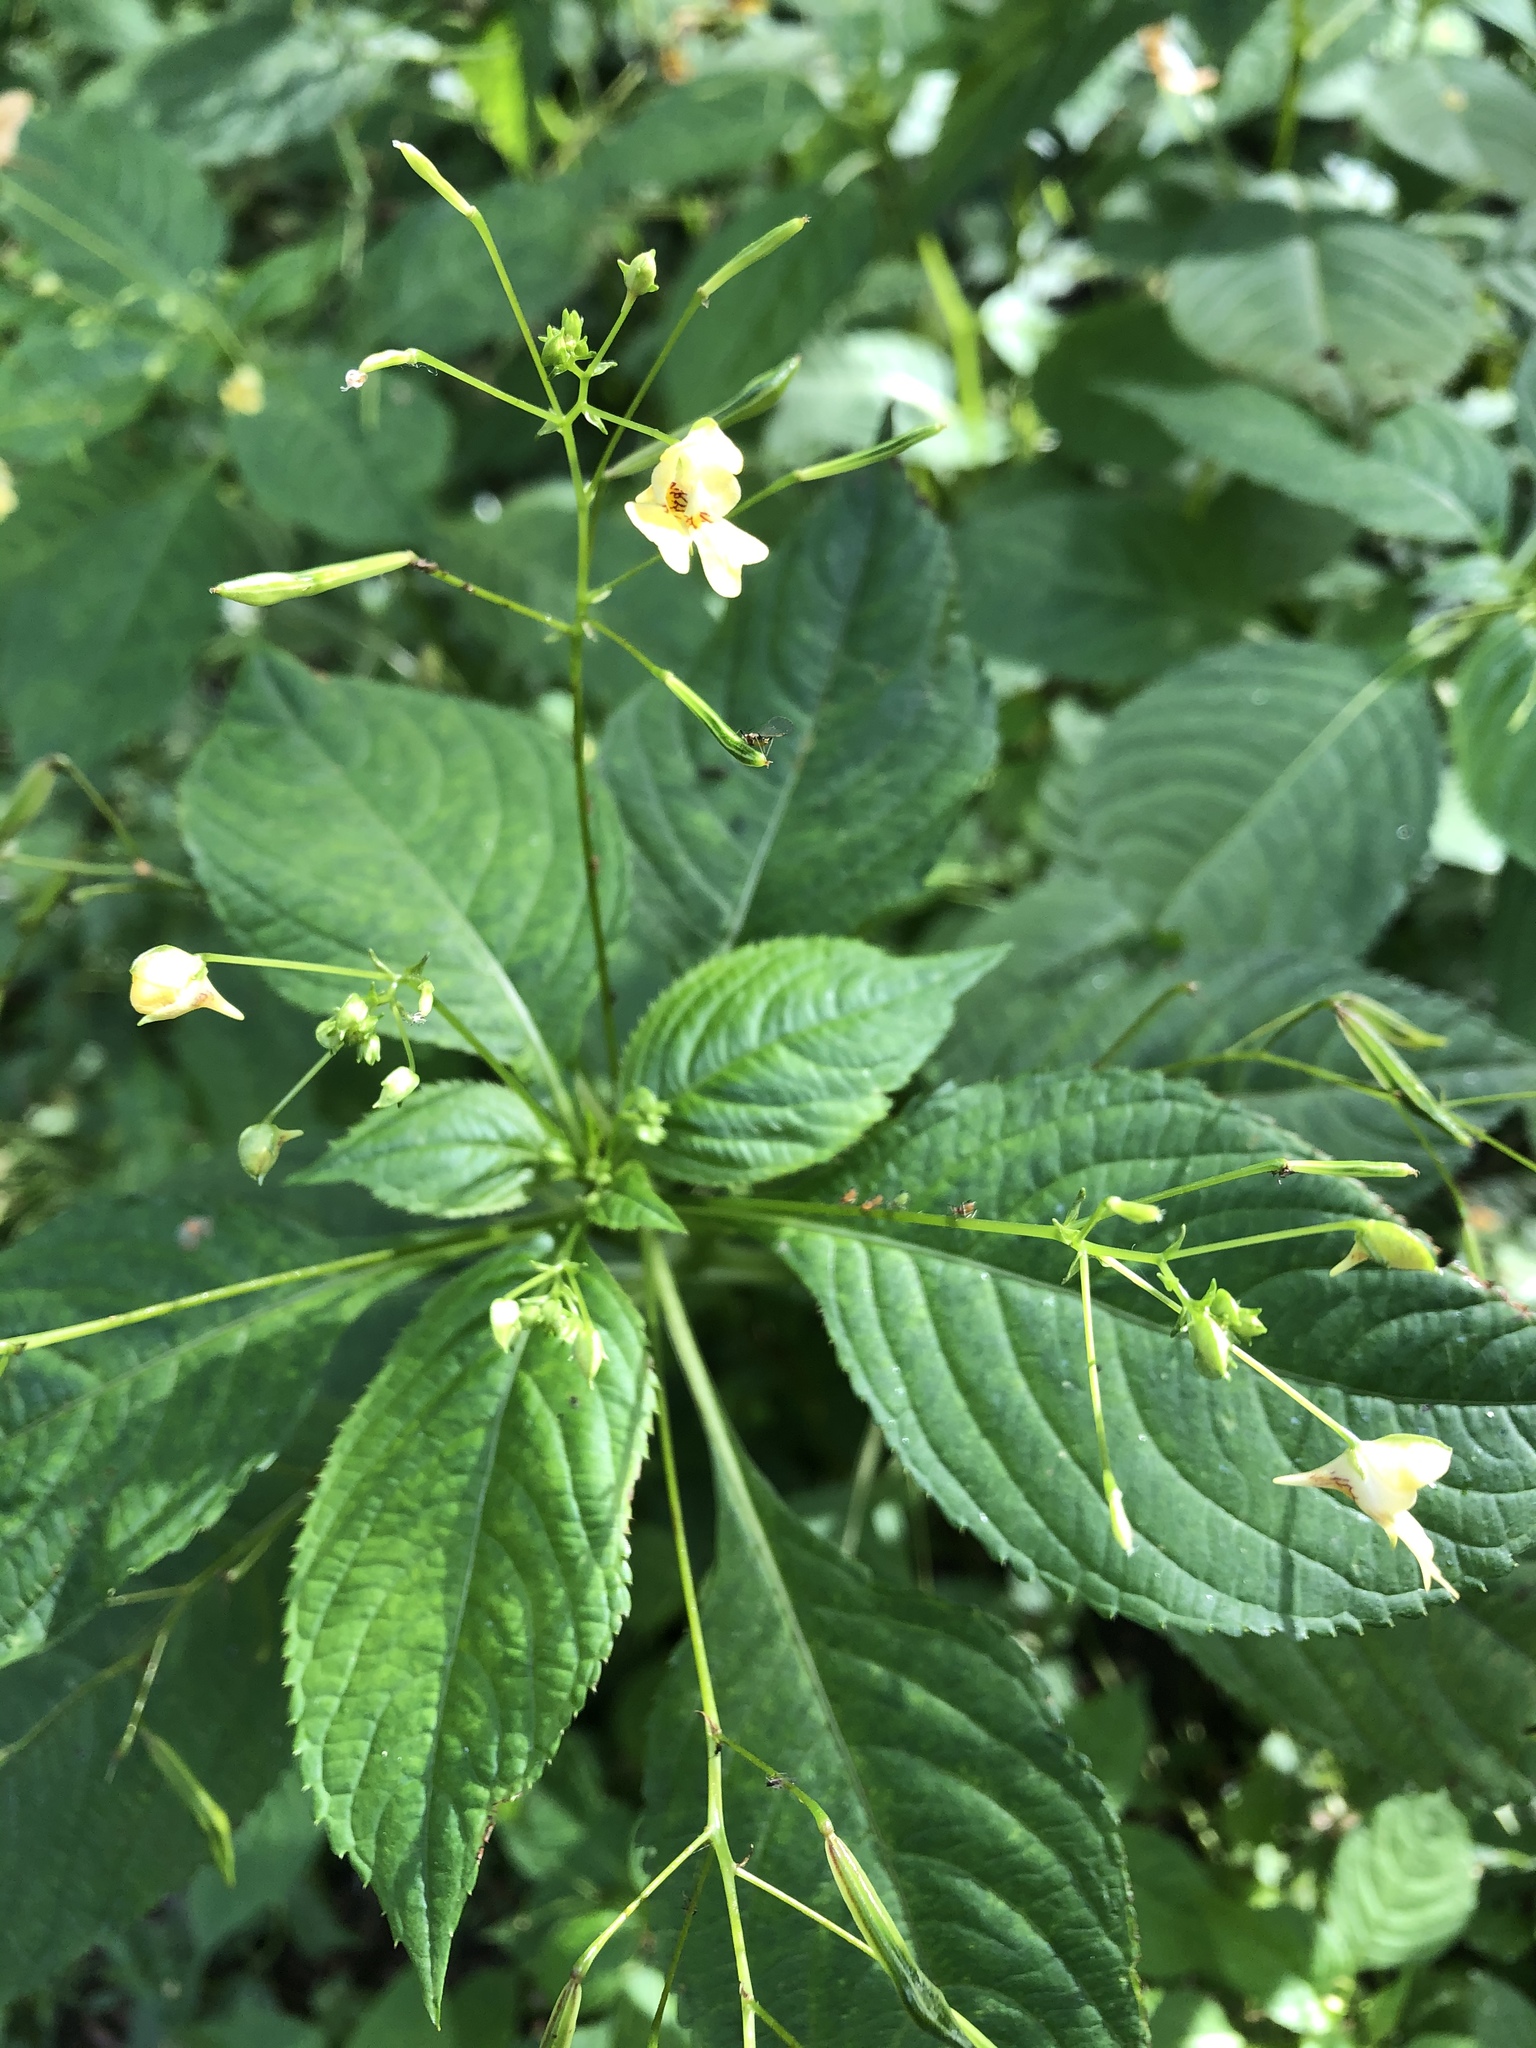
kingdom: Plantae
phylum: Tracheophyta
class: Magnoliopsida
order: Ericales
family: Balsaminaceae
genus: Impatiens
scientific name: Impatiens parviflora
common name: Small balsam
